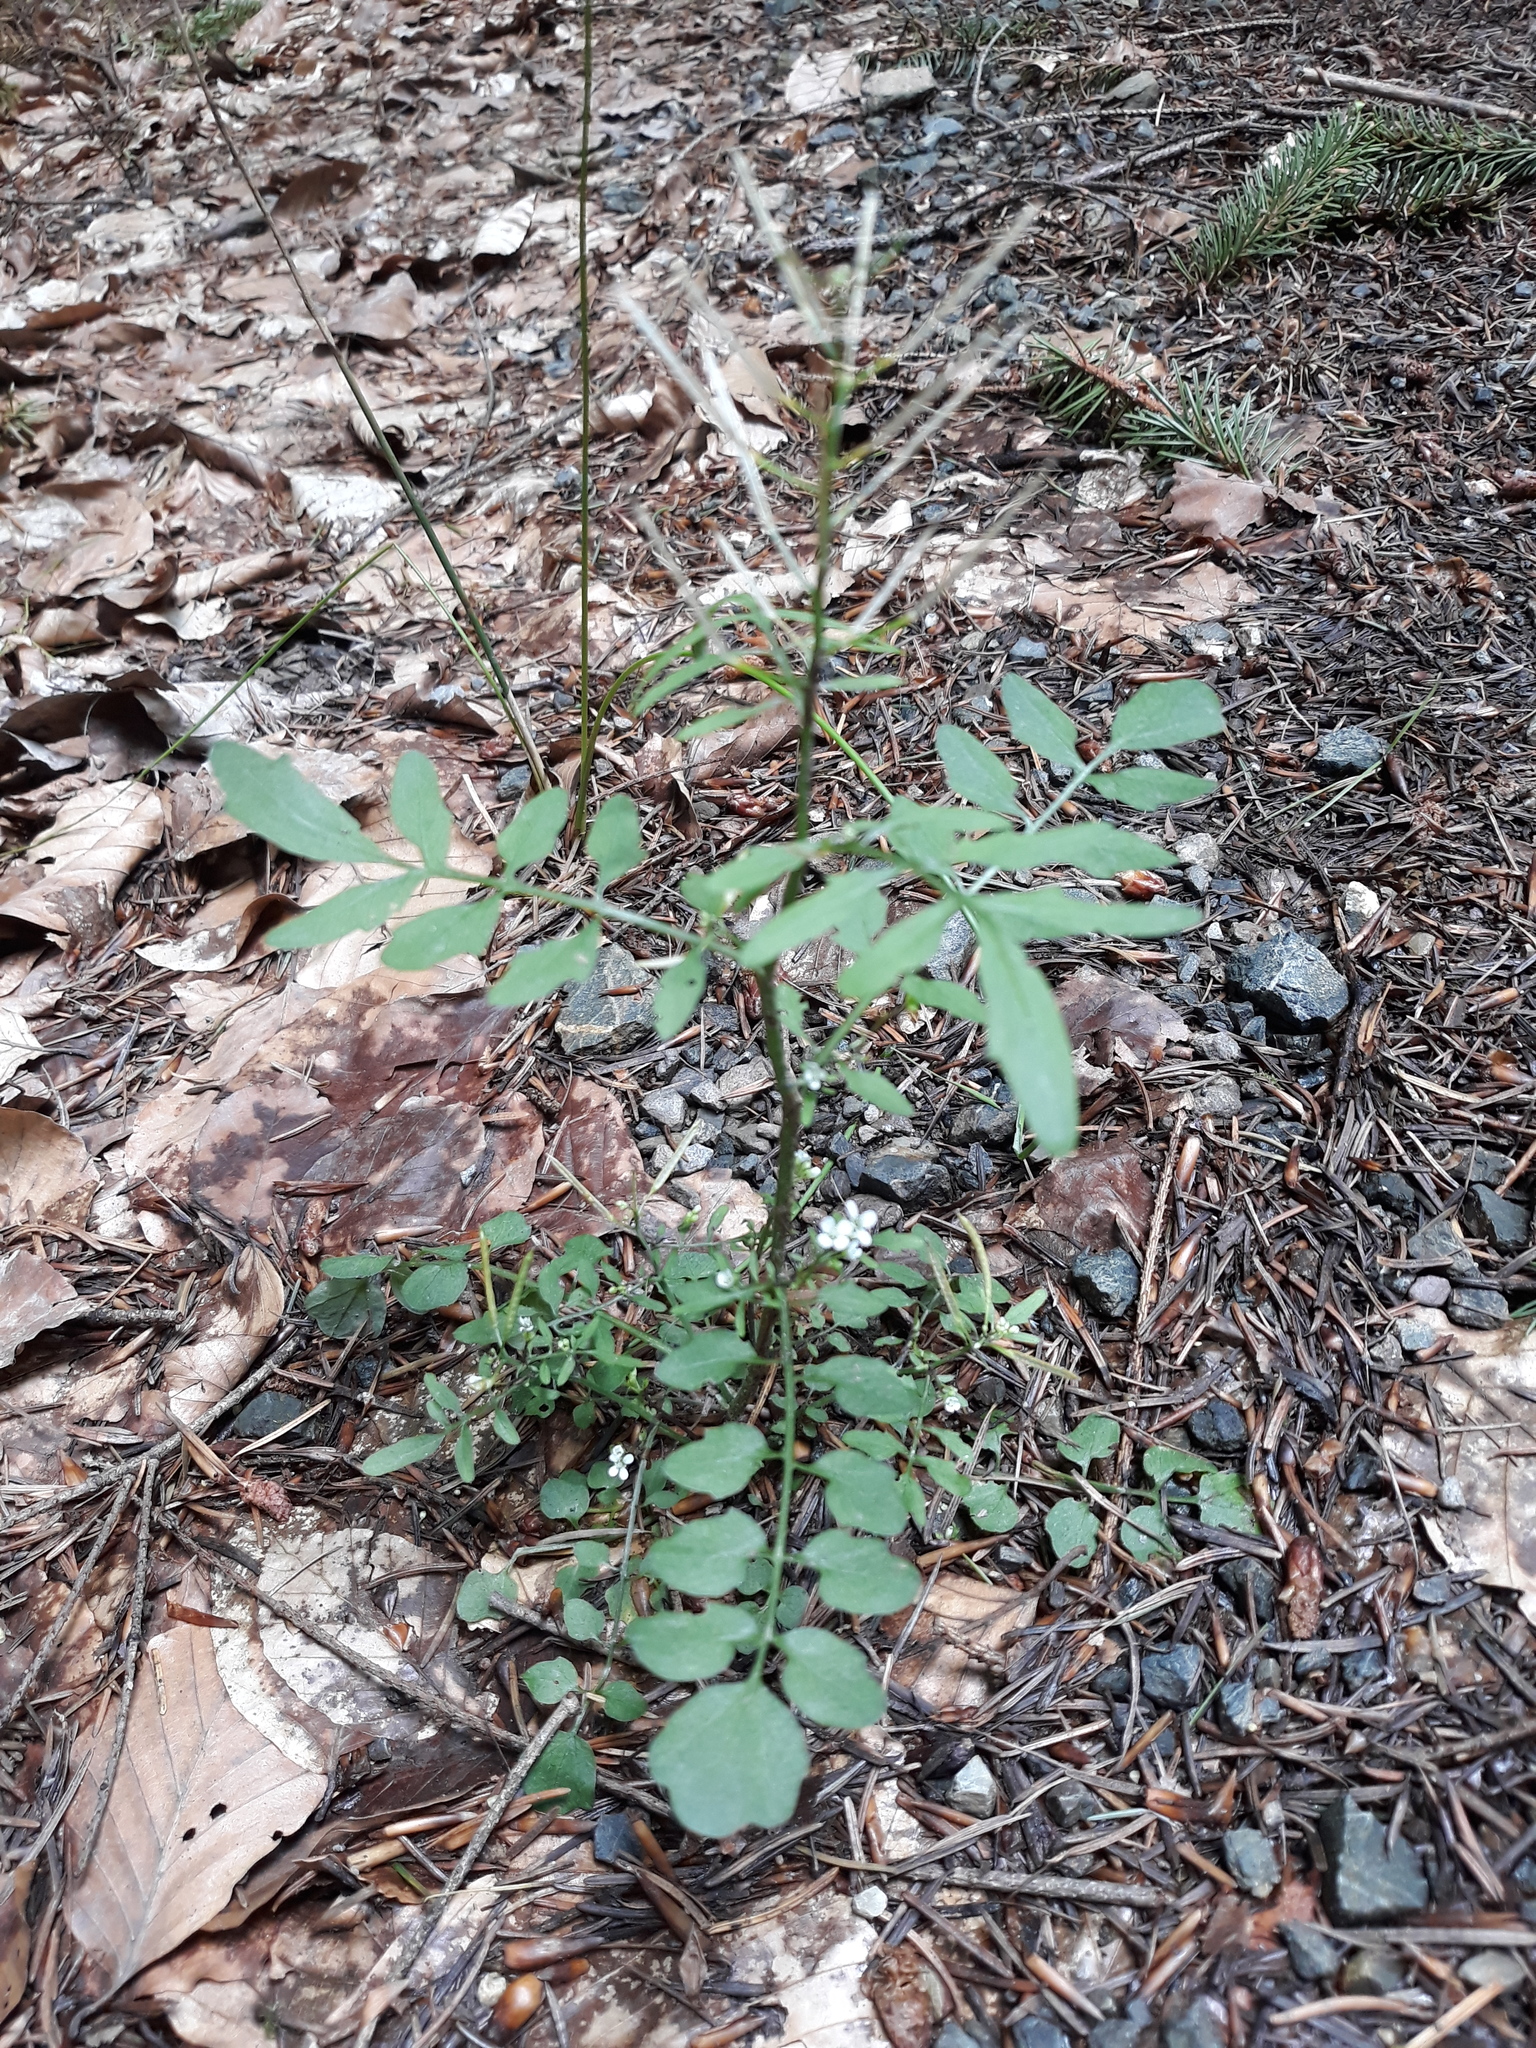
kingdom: Plantae
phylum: Tracheophyta
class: Magnoliopsida
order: Brassicales
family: Brassicaceae
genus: Cardamine
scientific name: Cardamine flexuosa
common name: Woodland bittercress
